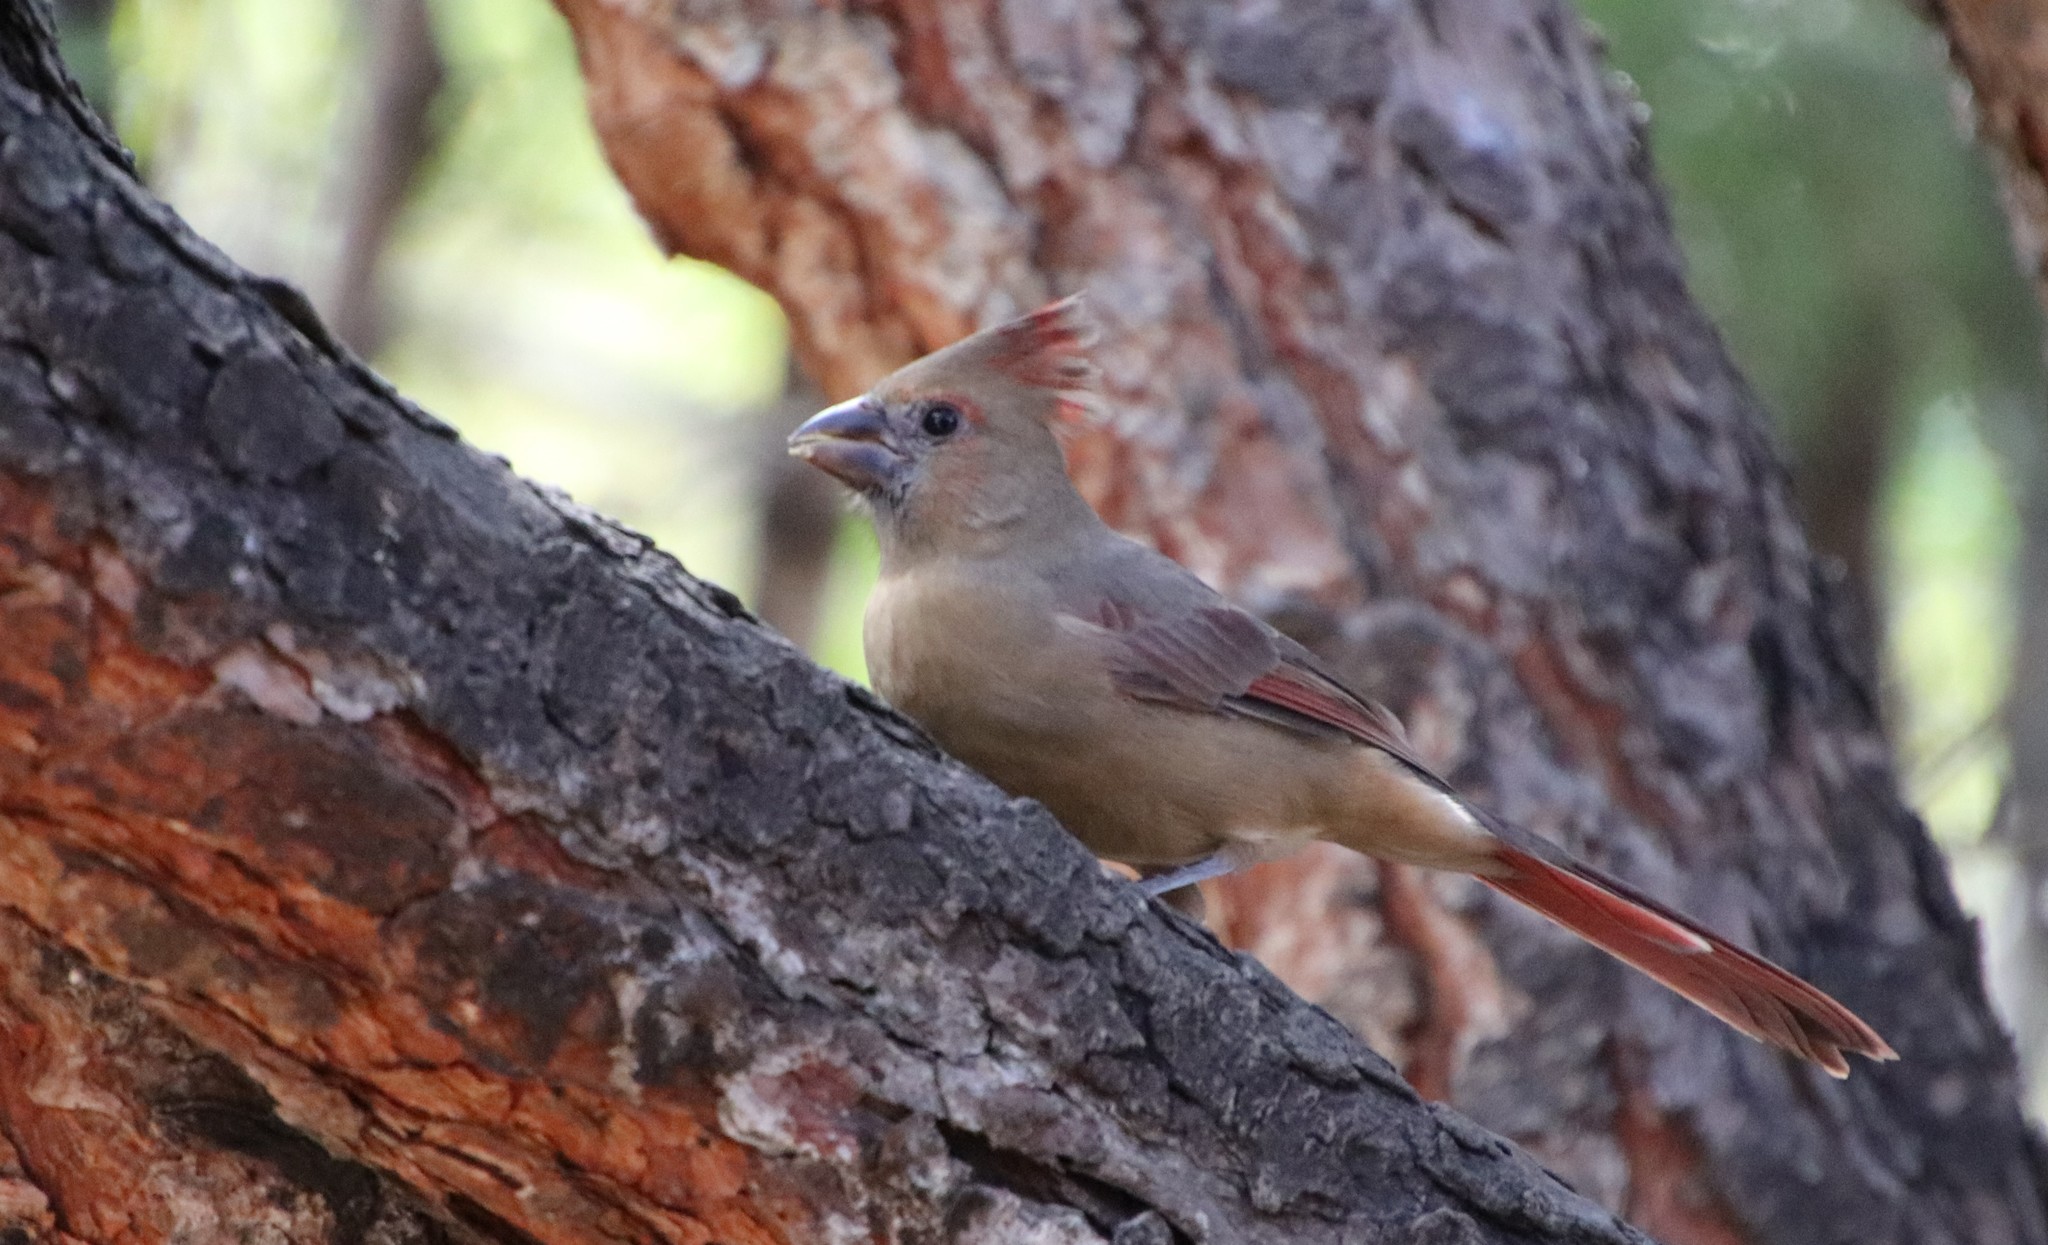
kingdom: Animalia
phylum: Chordata
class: Aves
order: Passeriformes
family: Cardinalidae
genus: Cardinalis
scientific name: Cardinalis cardinalis
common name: Northern cardinal
